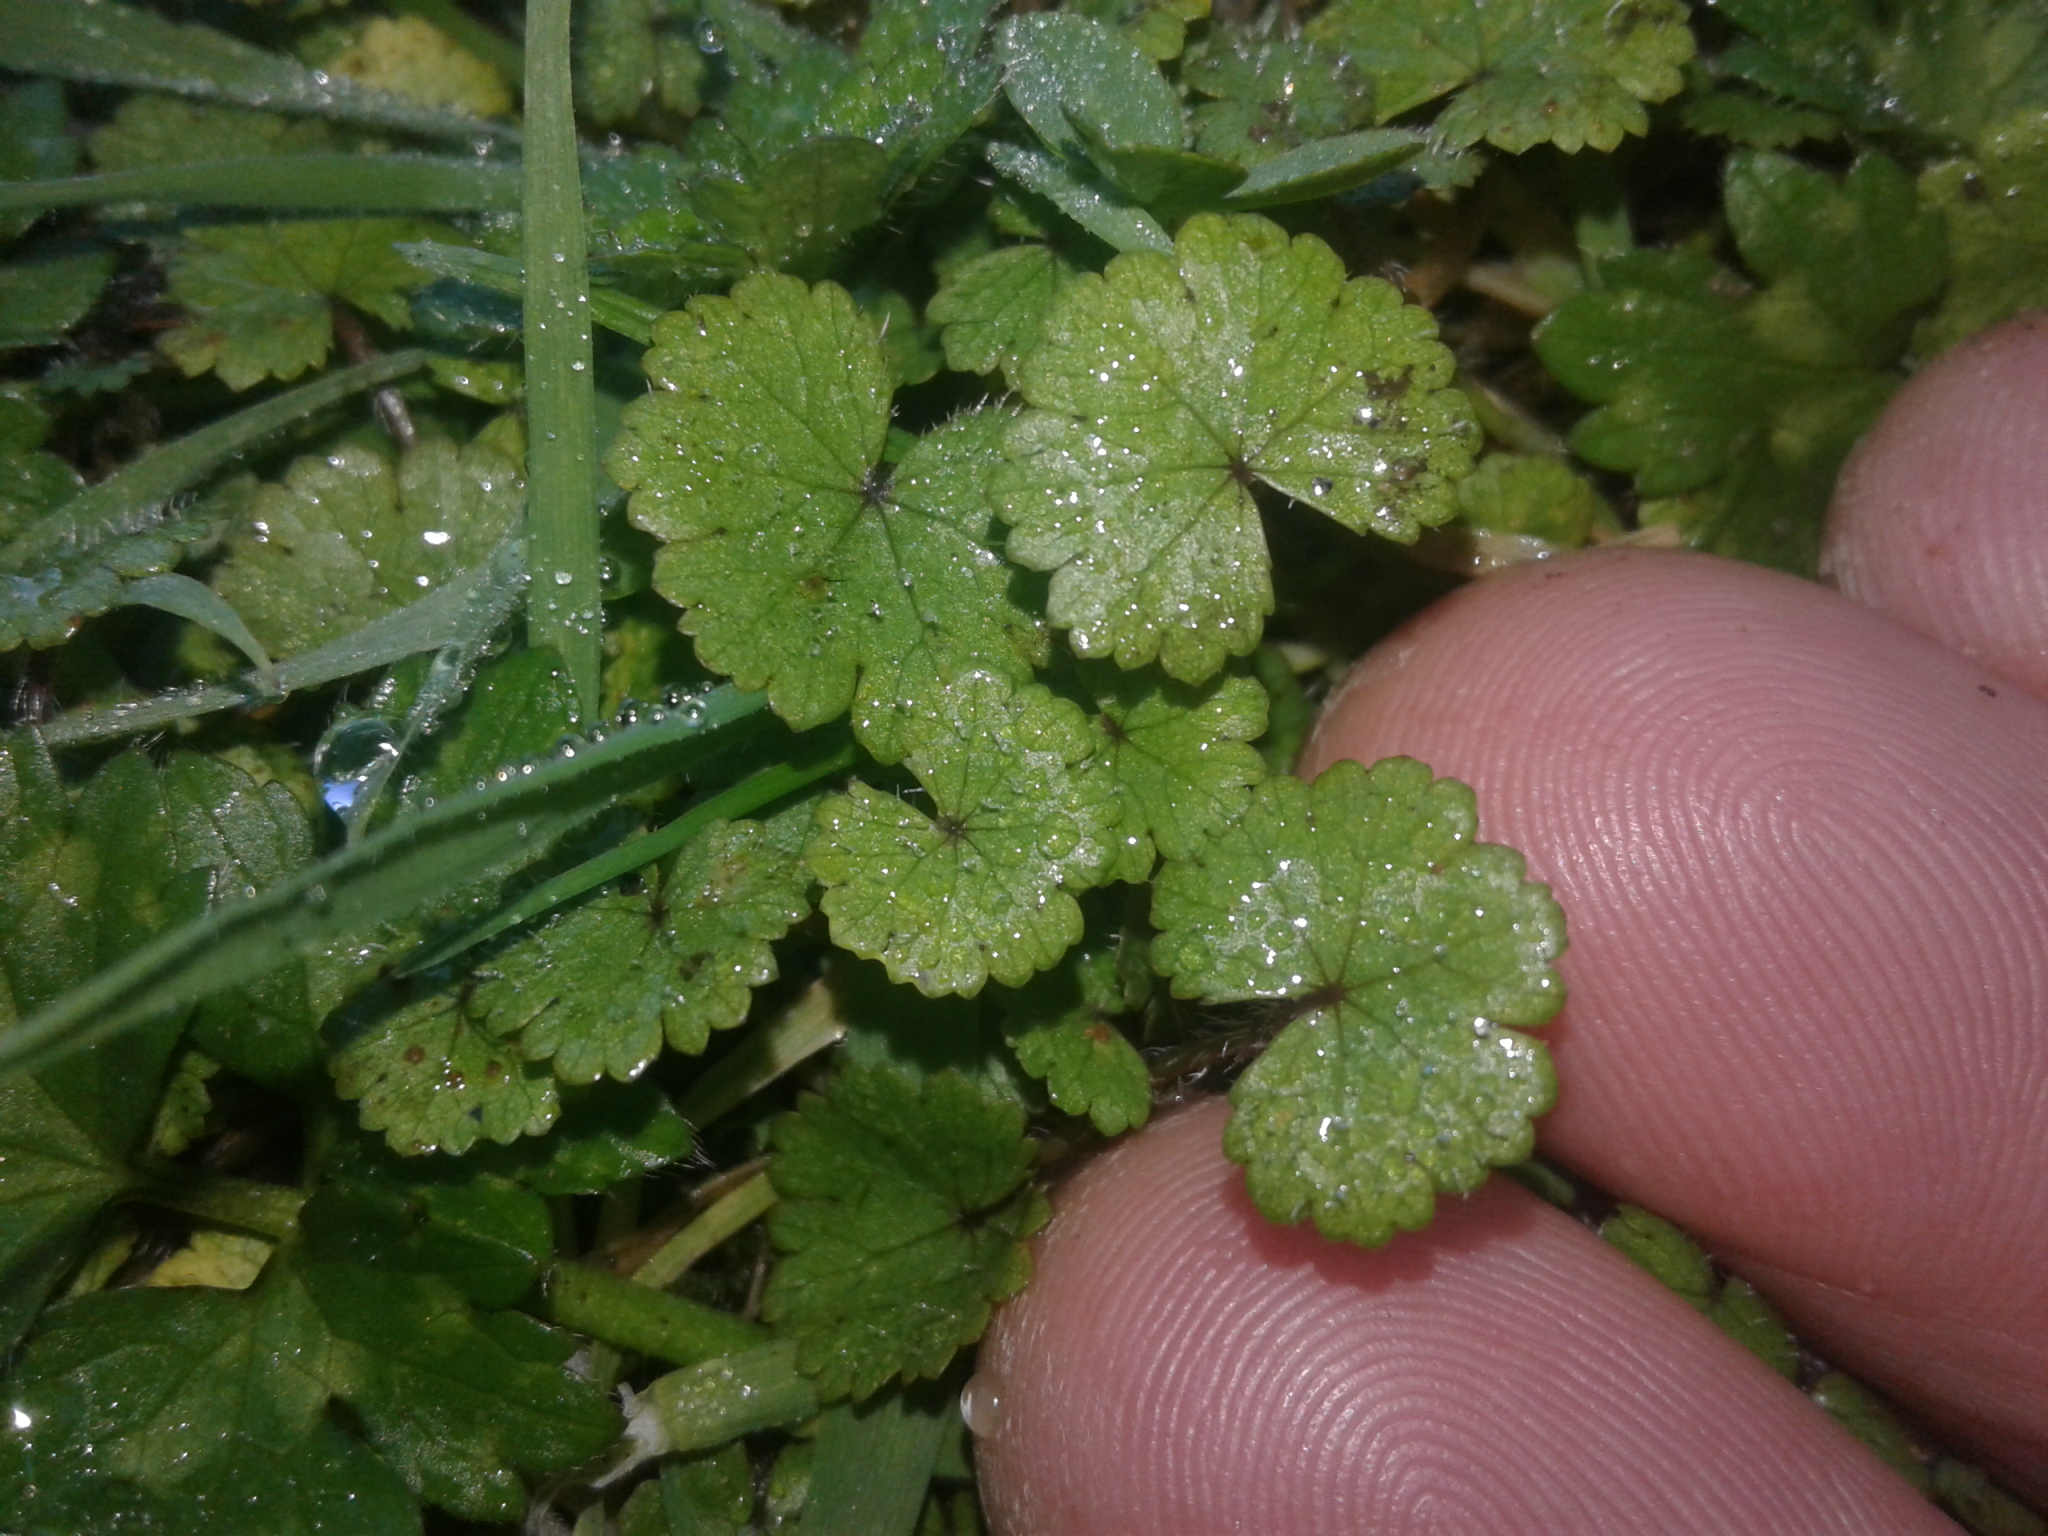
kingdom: Plantae
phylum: Tracheophyta
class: Magnoliopsida
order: Apiales
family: Araliaceae
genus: Hydrocotyle
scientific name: Hydrocotyle microphylla
